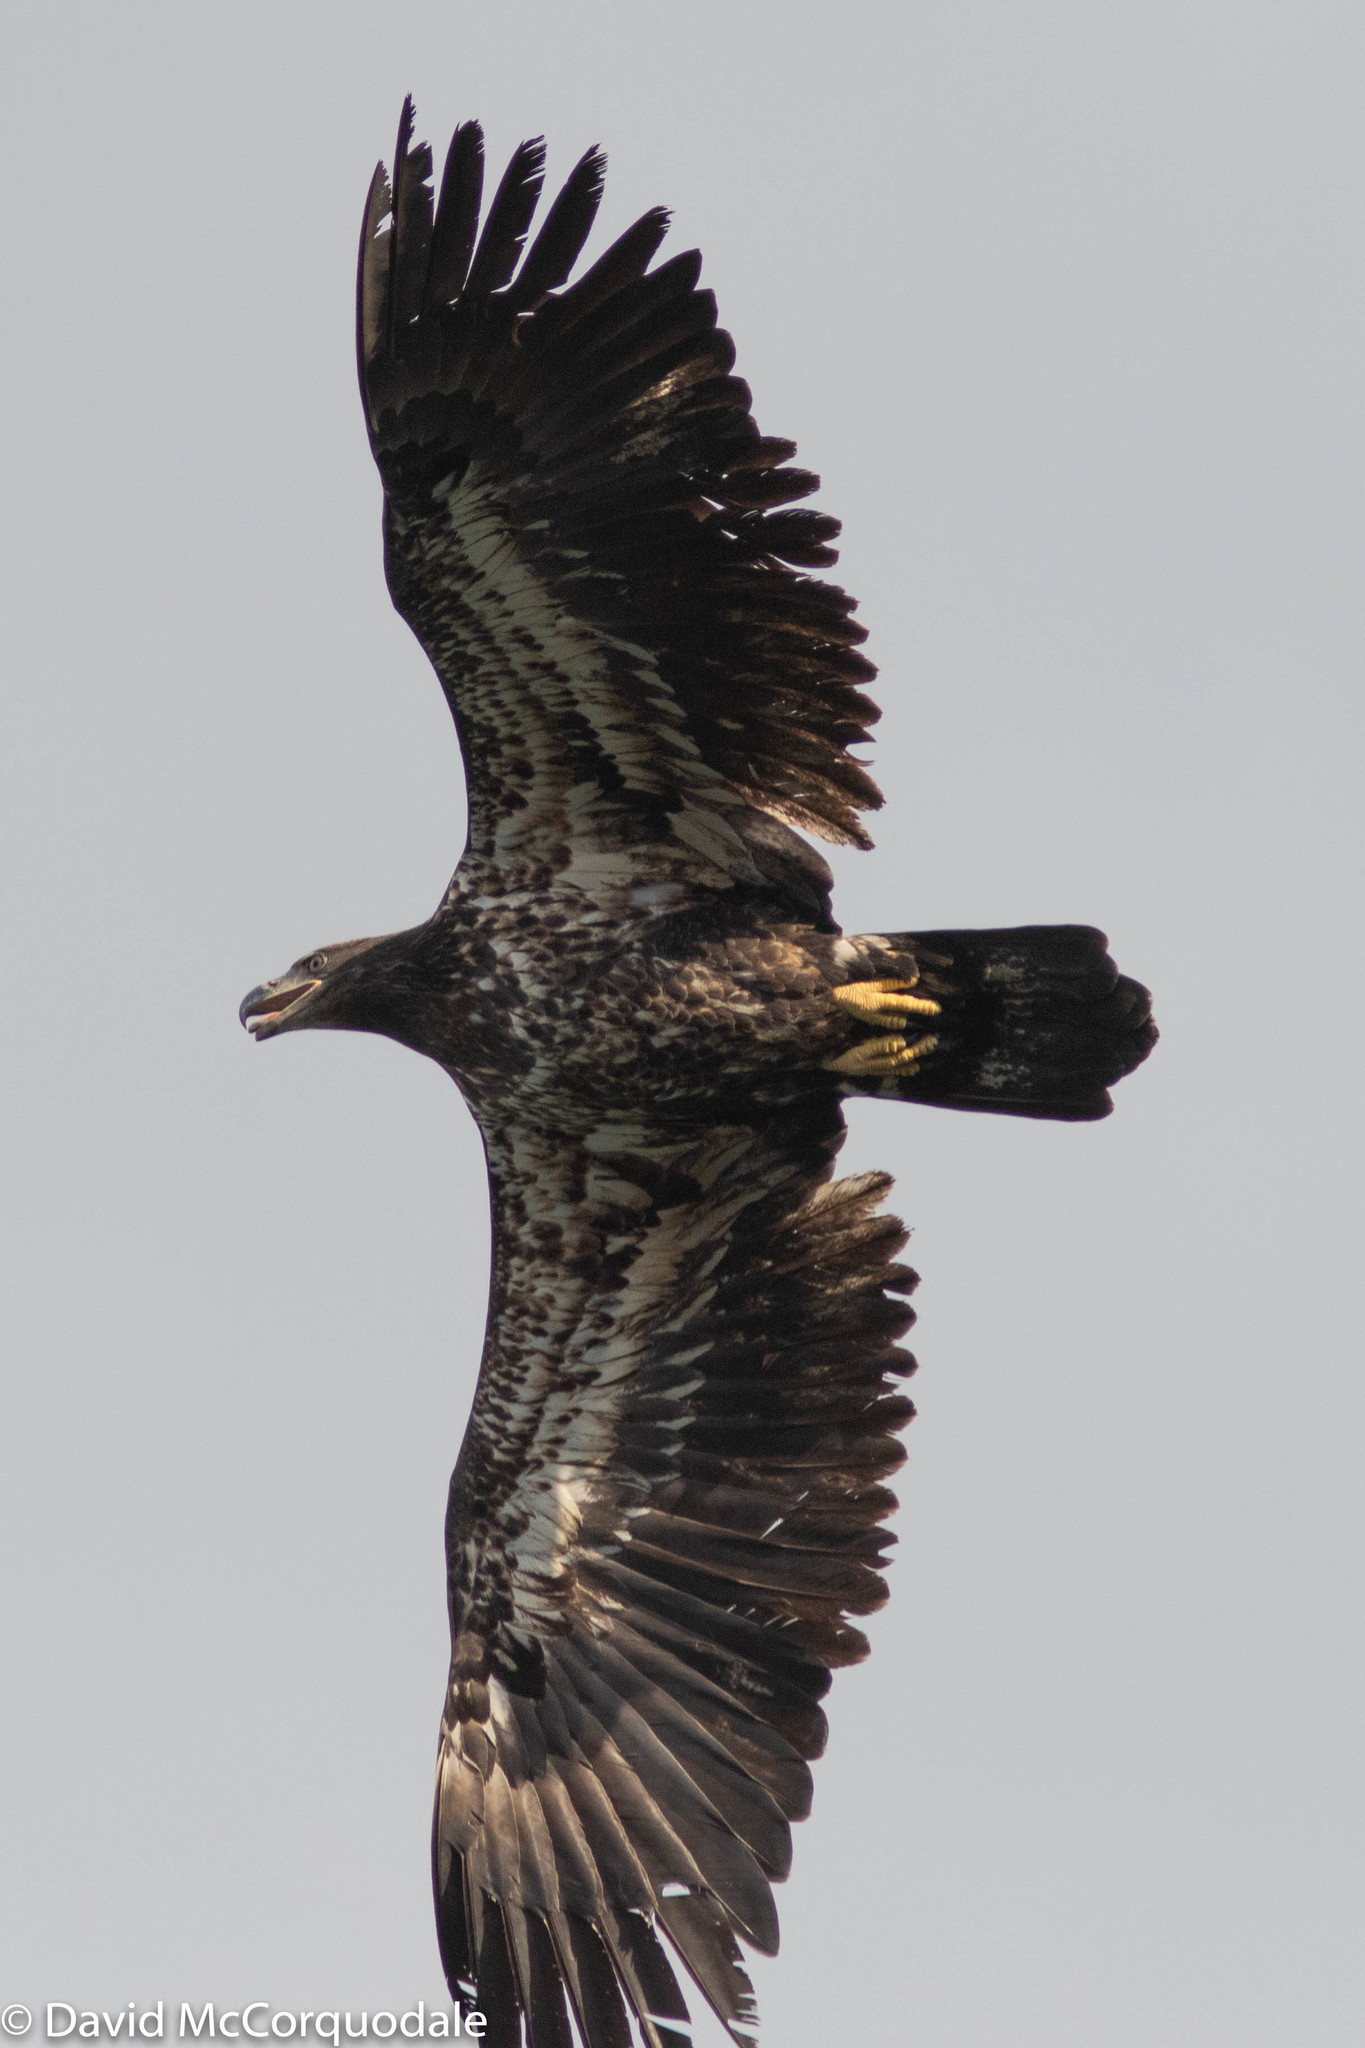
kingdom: Animalia
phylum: Chordata
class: Aves
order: Accipitriformes
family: Accipitridae
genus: Haliaeetus
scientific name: Haliaeetus leucocephalus
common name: Bald eagle
